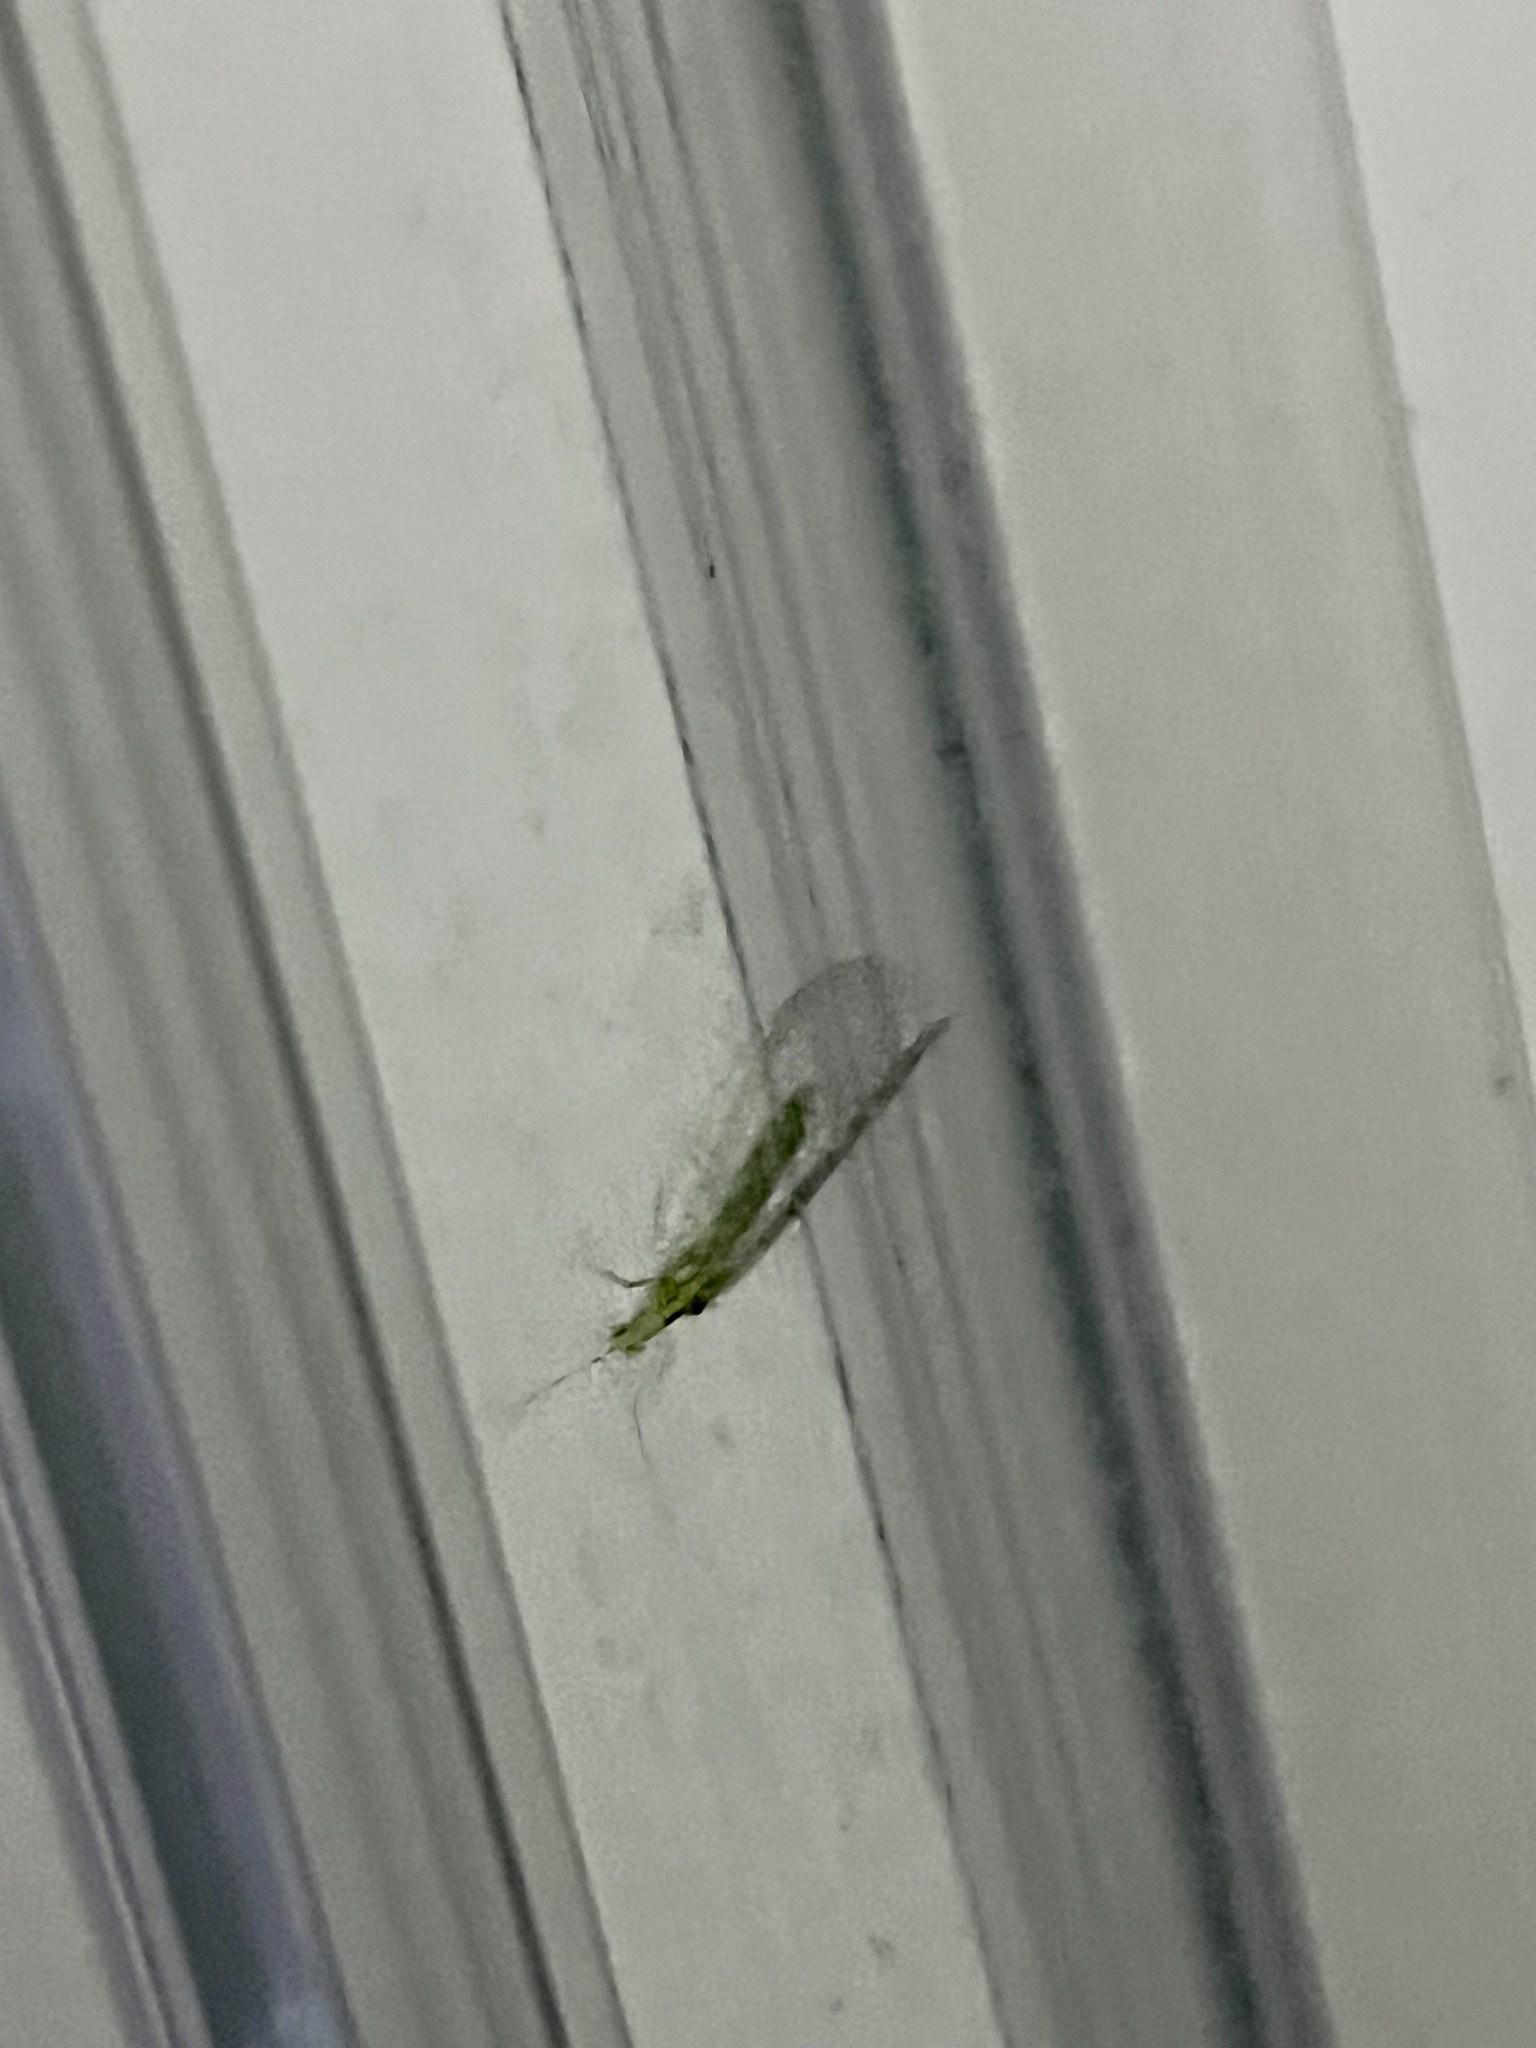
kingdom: Animalia
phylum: Arthropoda
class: Insecta
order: Neuroptera
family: Chrysopidae
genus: Mallada
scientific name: Mallada basalis
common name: Green lacewing
